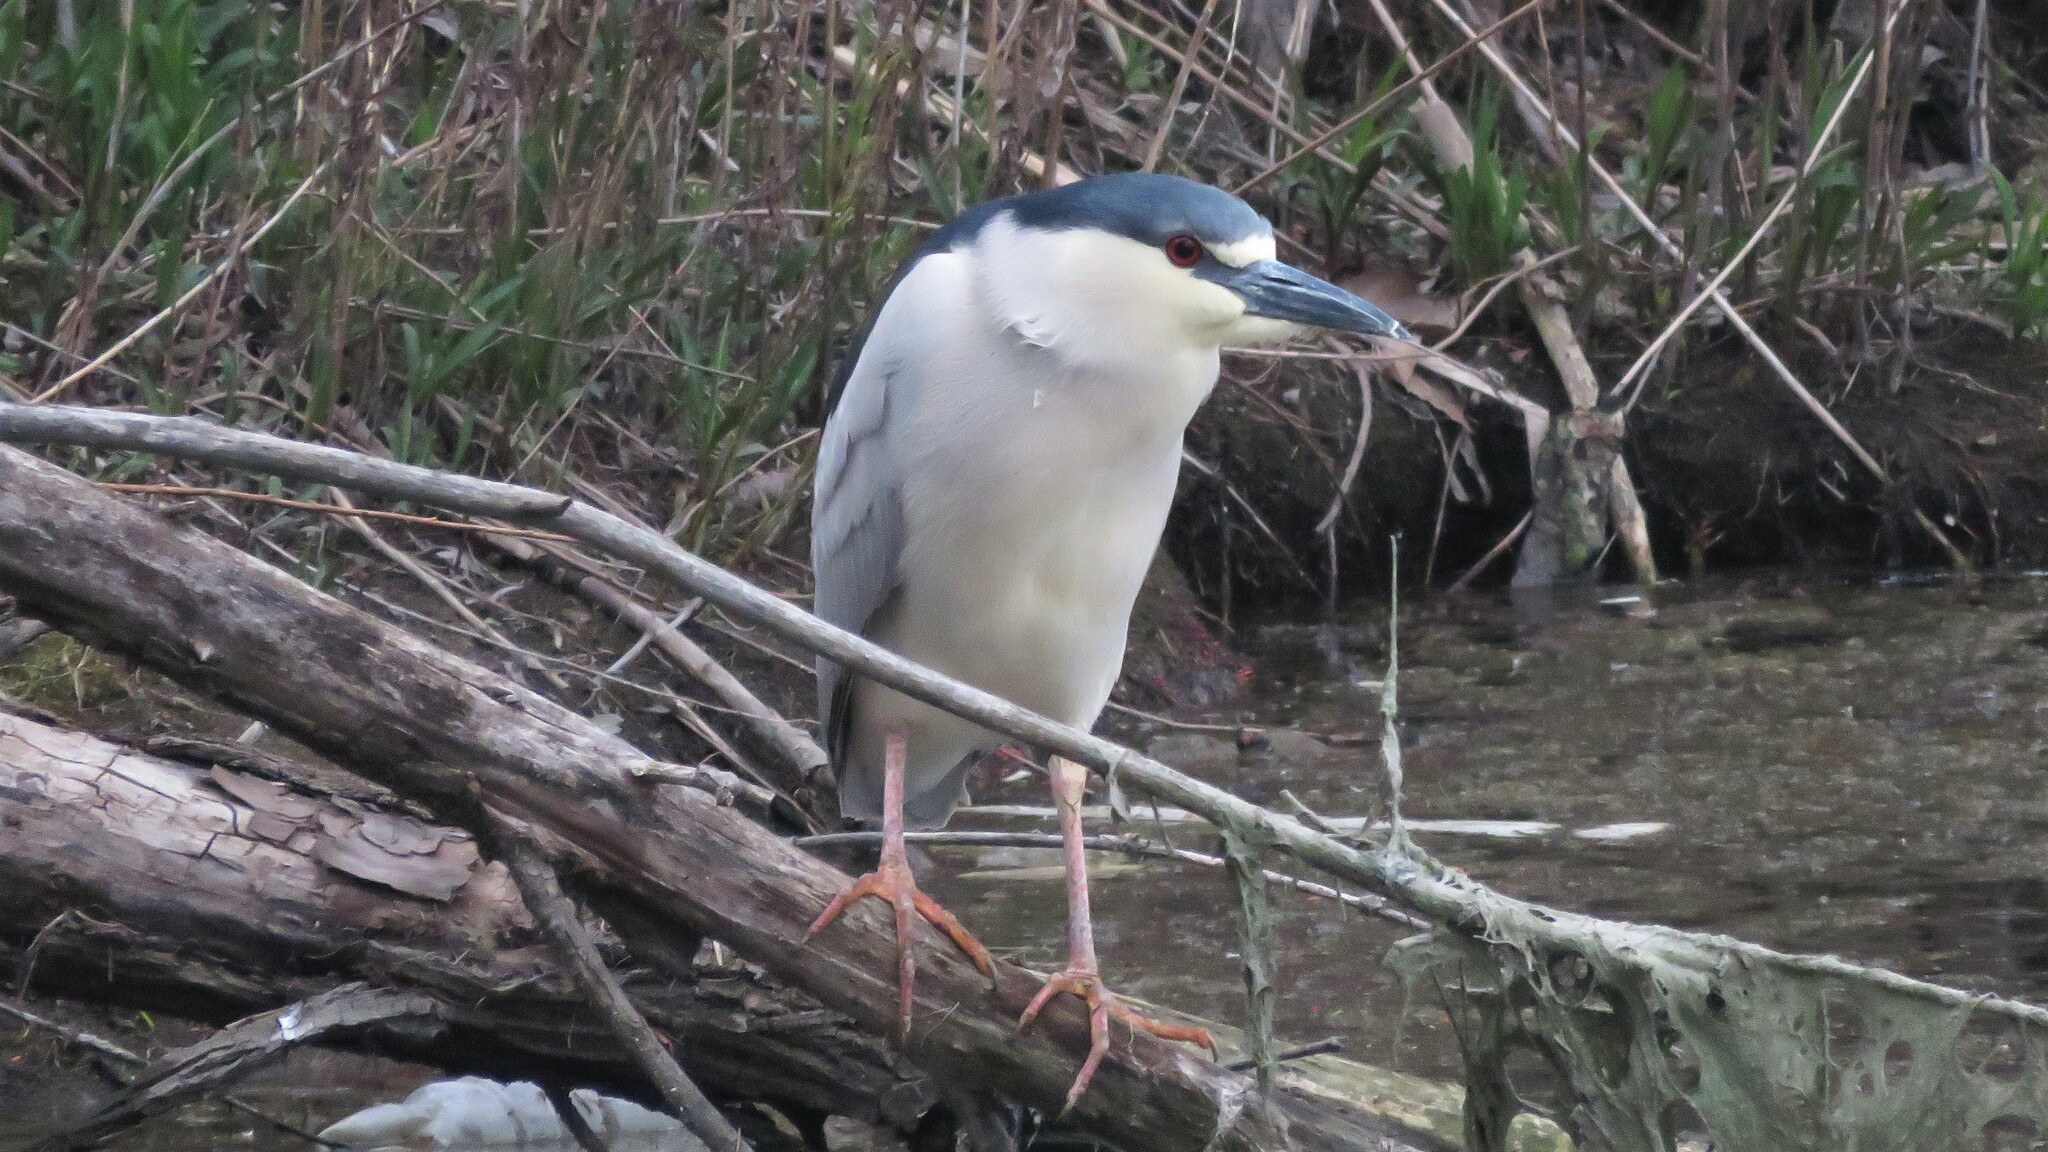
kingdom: Animalia
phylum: Chordata
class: Aves
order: Pelecaniformes
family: Ardeidae
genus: Nycticorax
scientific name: Nycticorax nycticorax
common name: Black-crowned night heron
